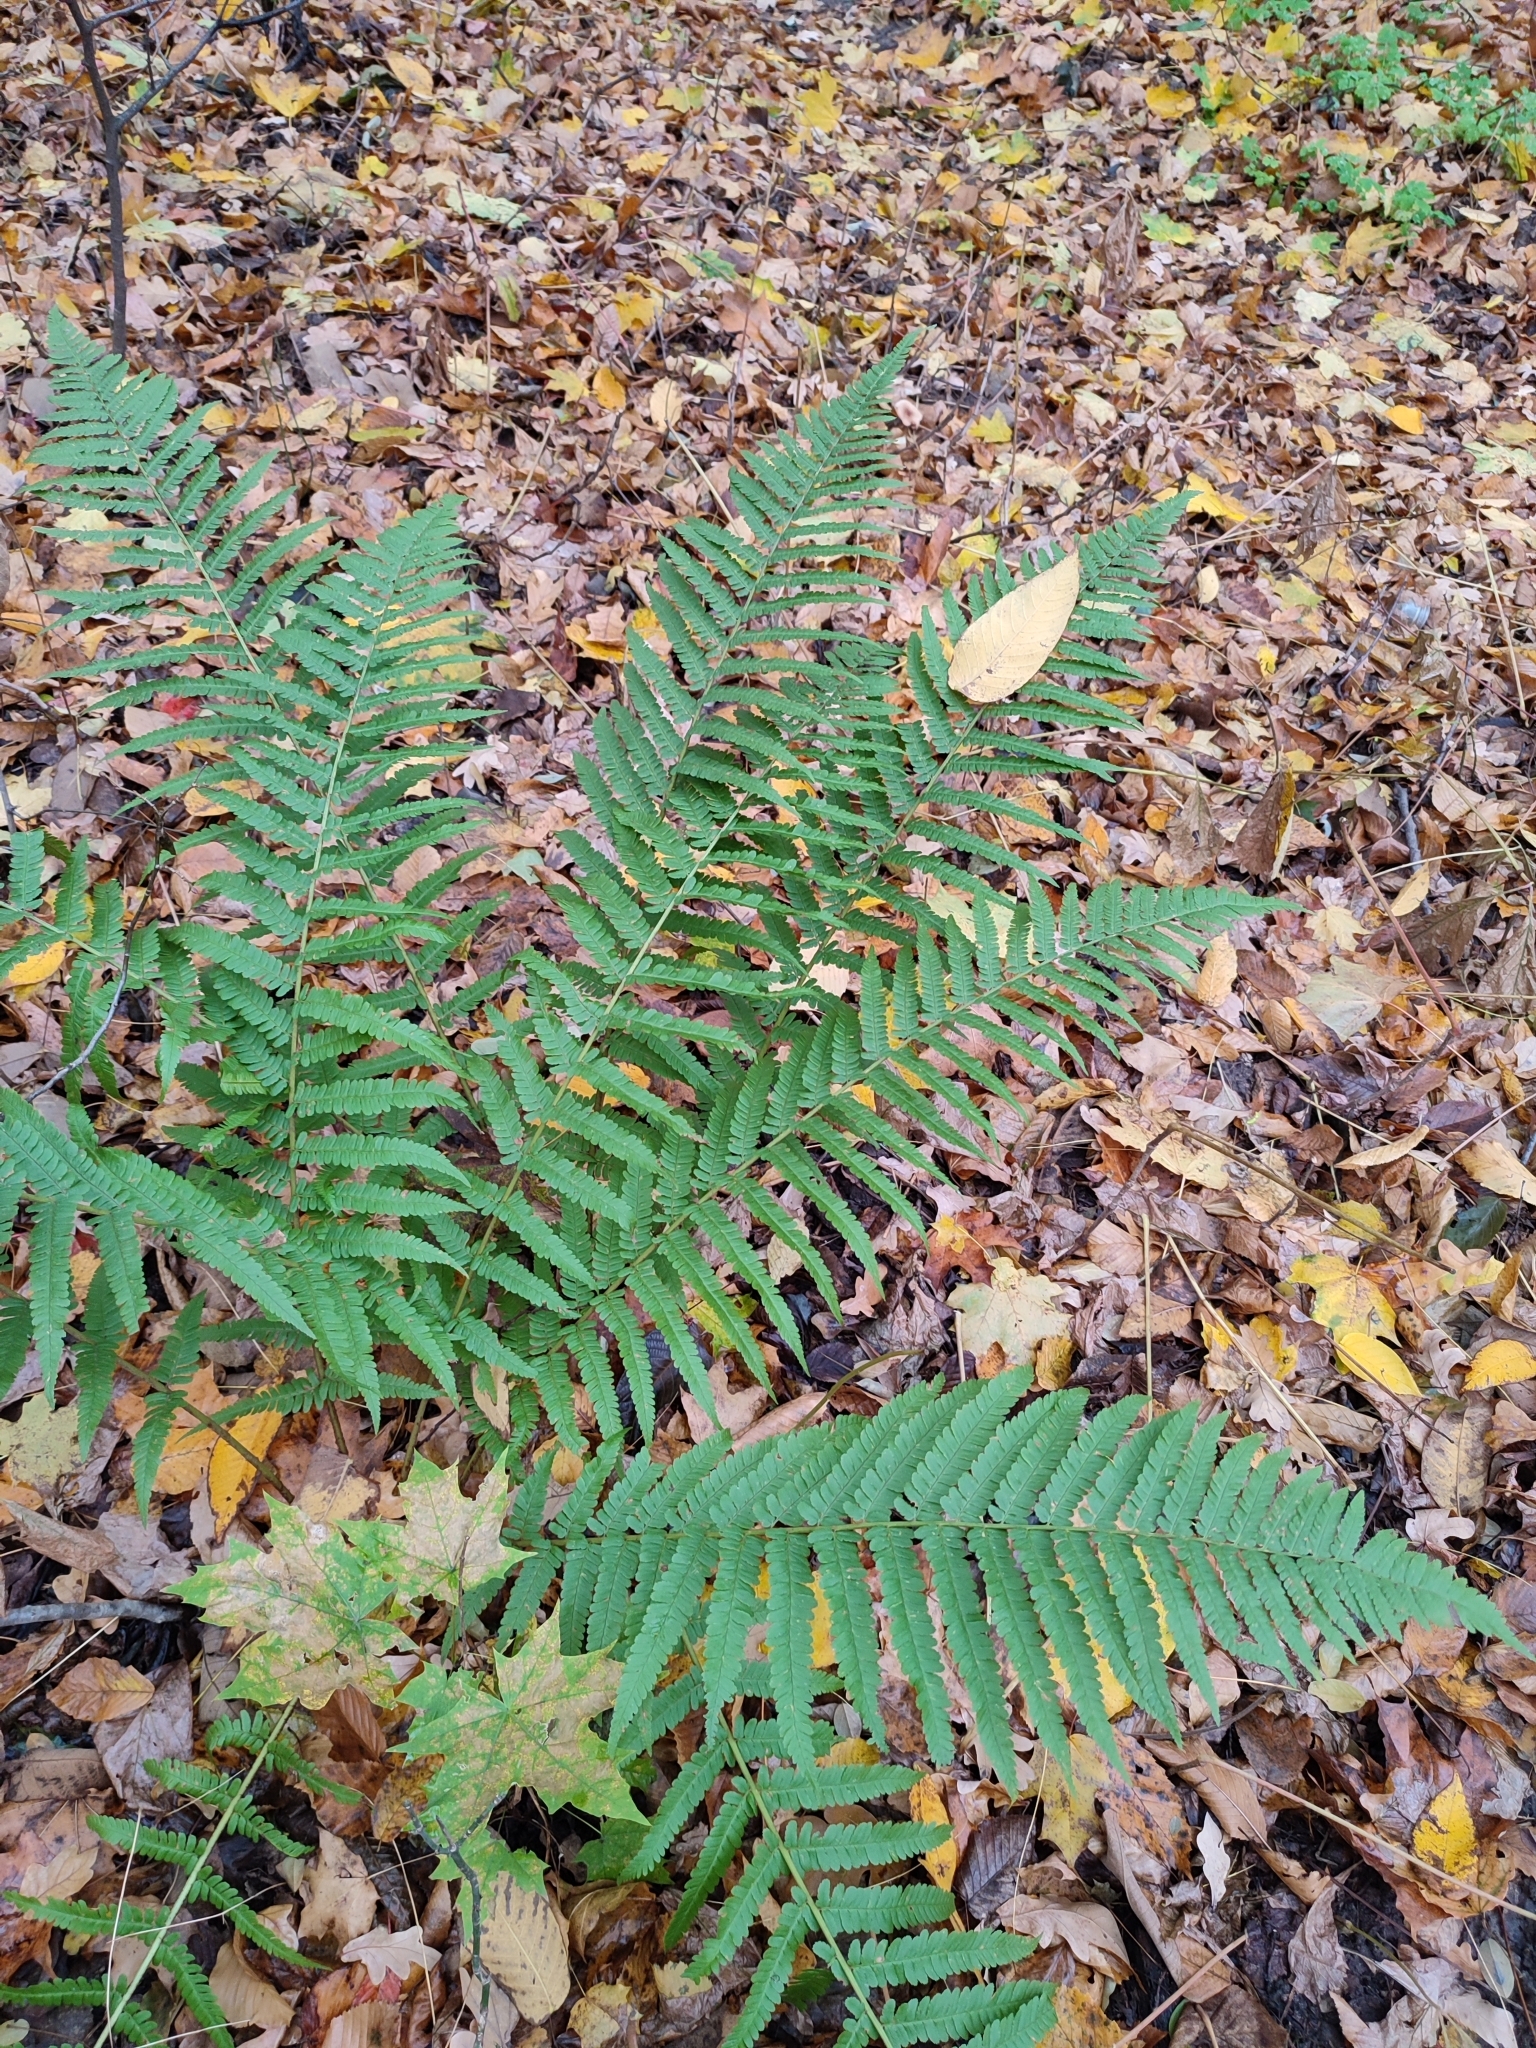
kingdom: Plantae
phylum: Tracheophyta
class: Polypodiopsida
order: Polypodiales
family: Dryopteridaceae
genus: Dryopteris
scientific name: Dryopteris filix-mas
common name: Male fern
